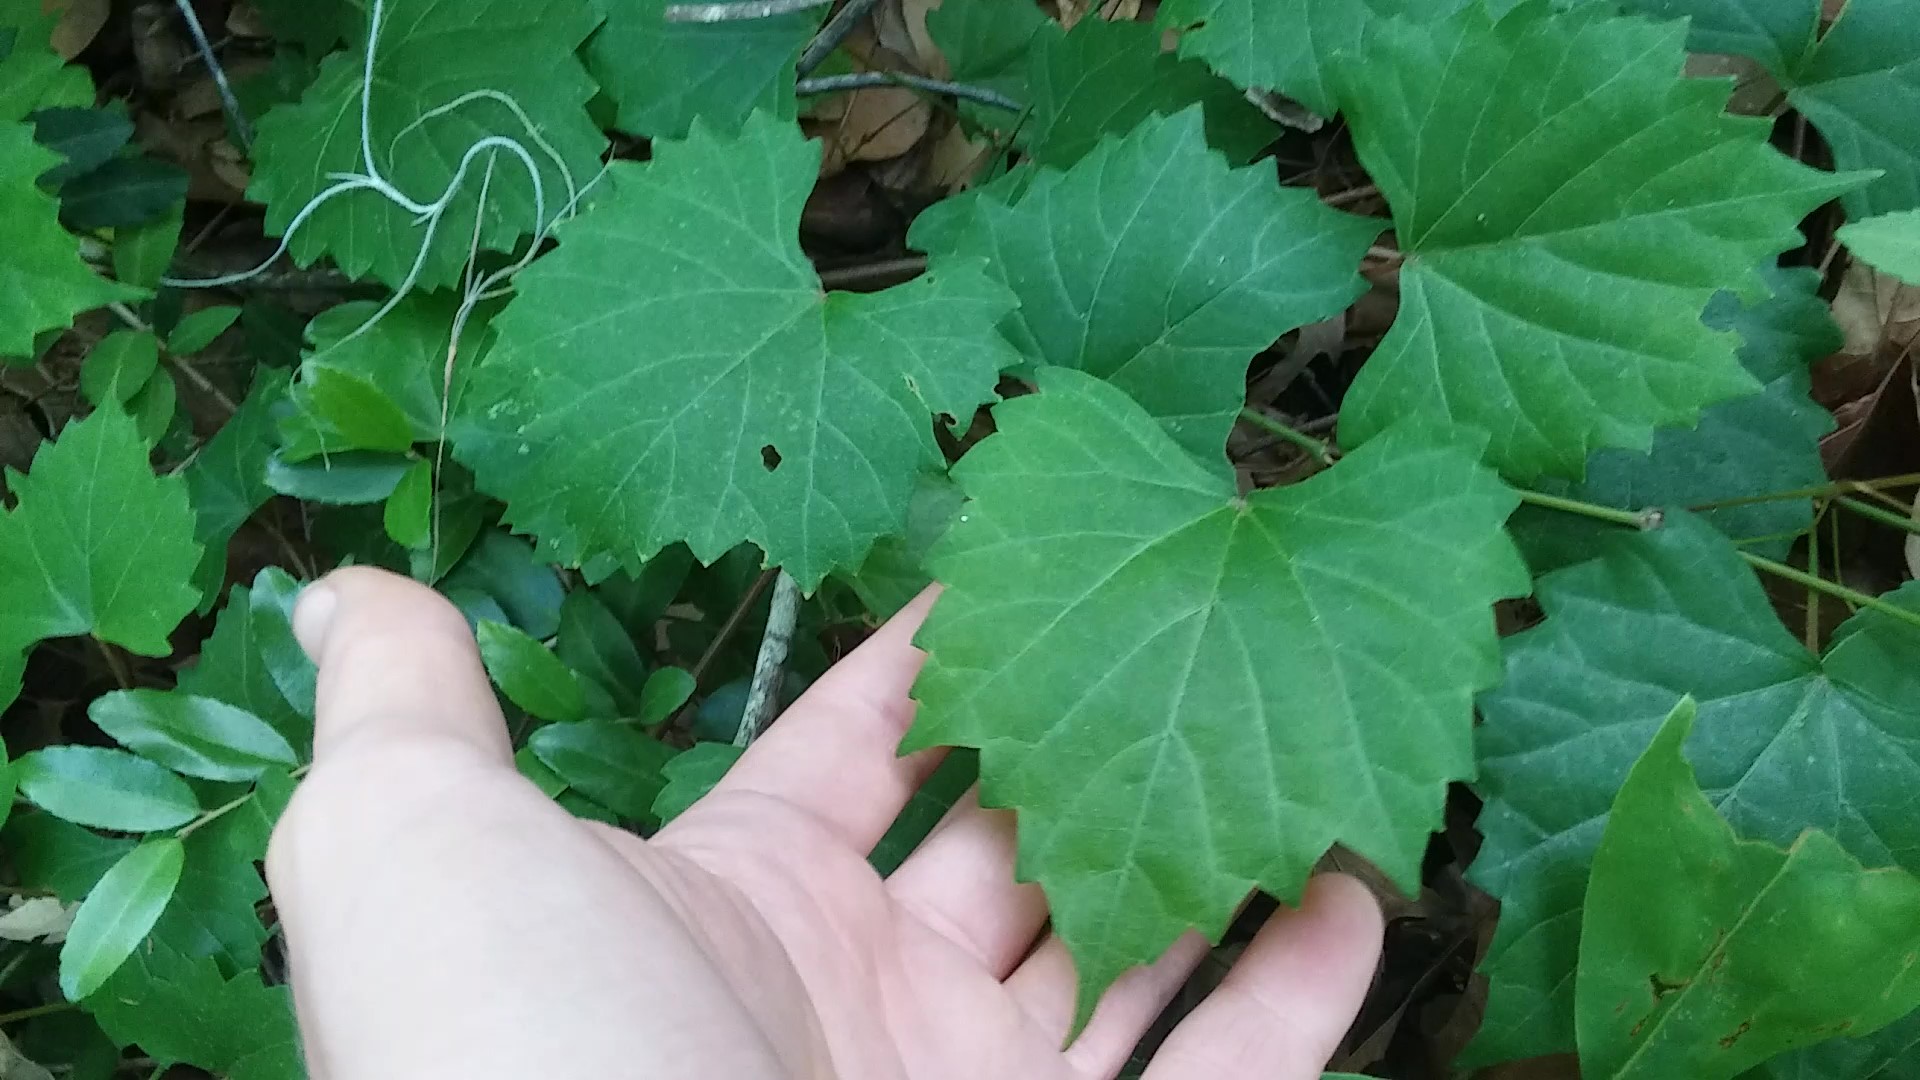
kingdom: Plantae
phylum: Tracheophyta
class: Magnoliopsida
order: Vitales
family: Vitaceae
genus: Vitis
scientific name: Vitis rotundifolia
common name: Muscadine grape
